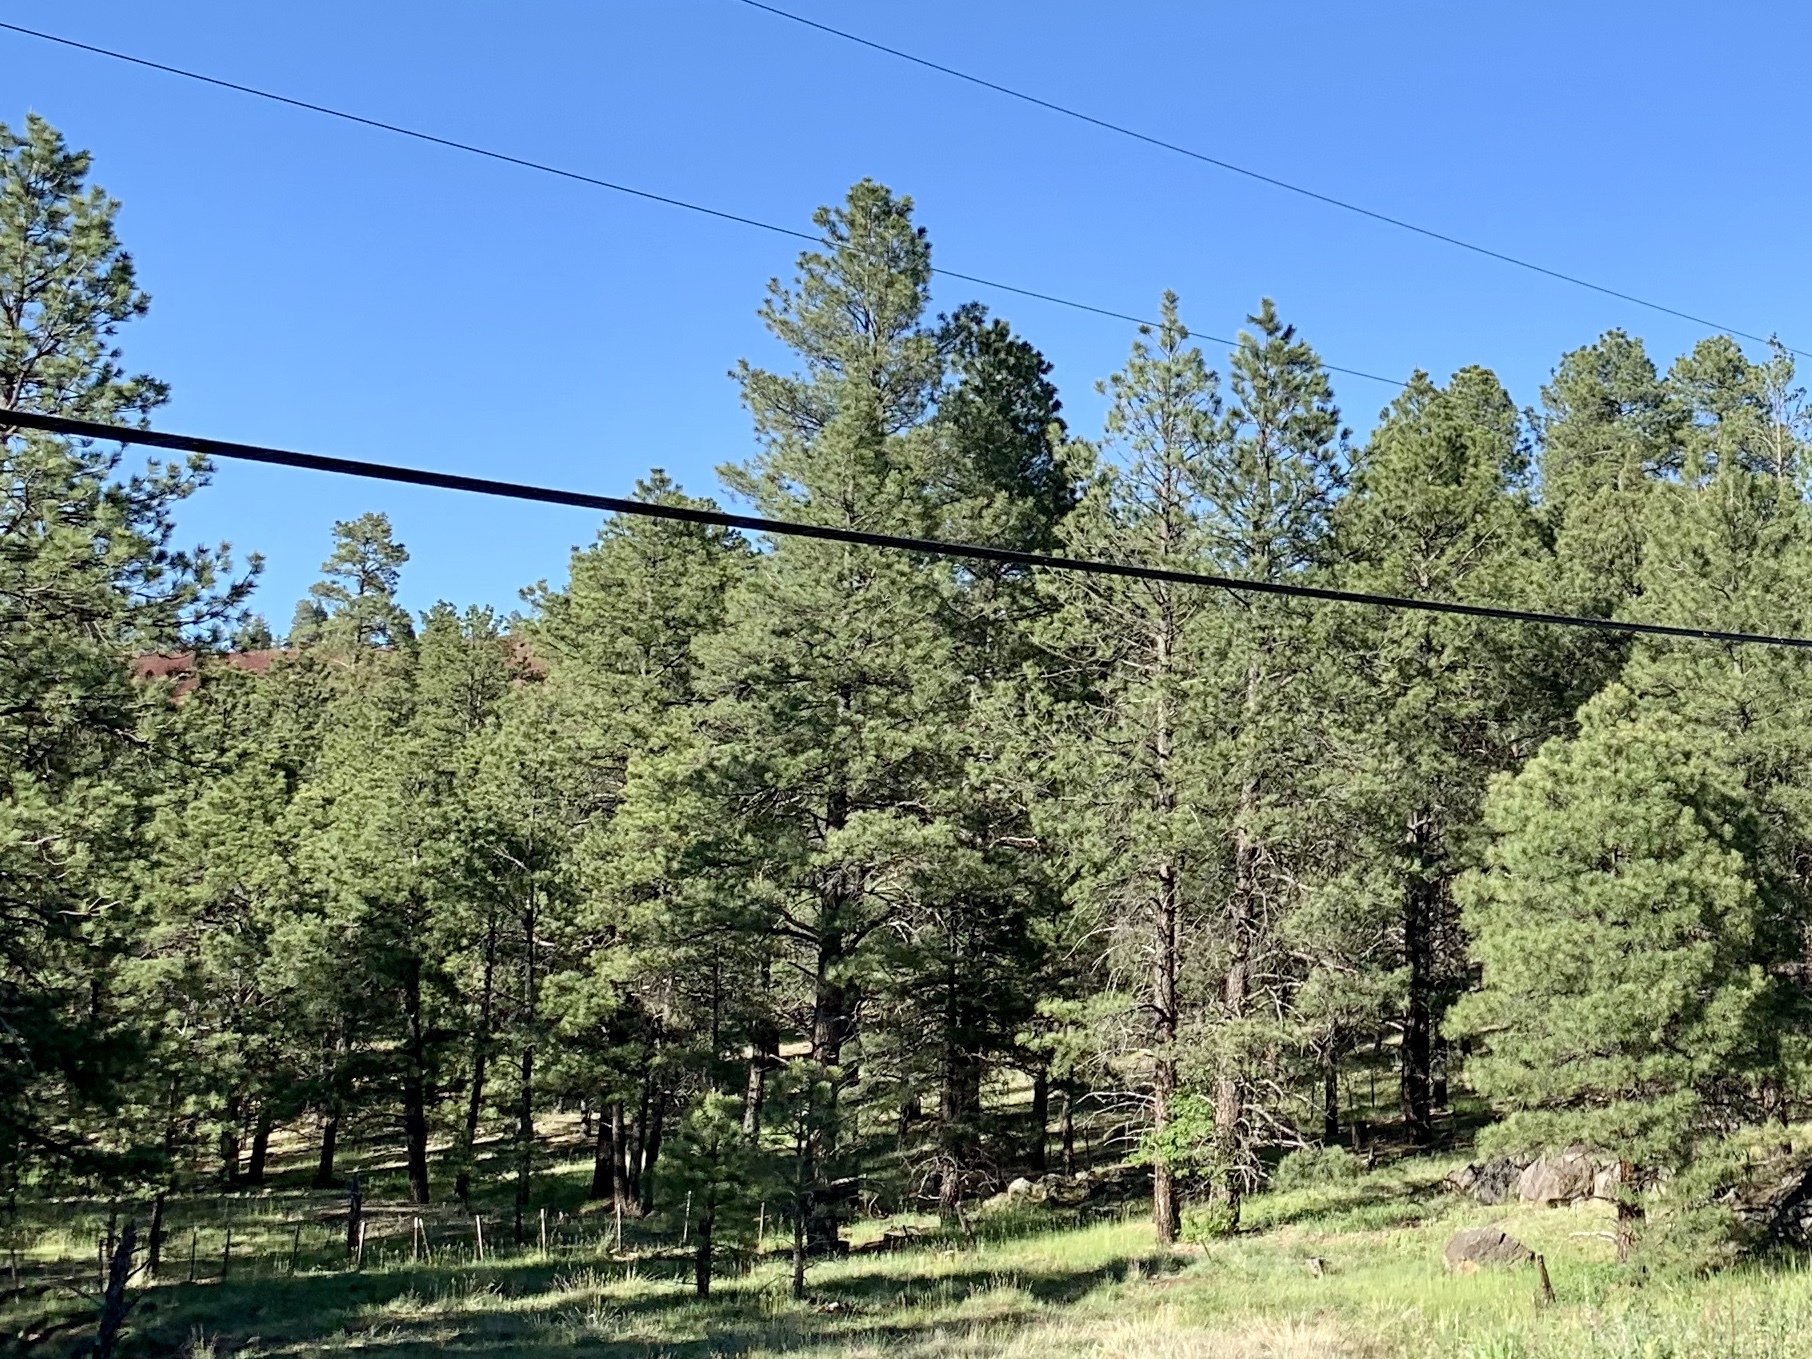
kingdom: Plantae
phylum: Tracheophyta
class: Pinopsida
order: Pinales
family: Pinaceae
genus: Pinus
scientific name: Pinus ponderosa
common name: Western yellow-pine
